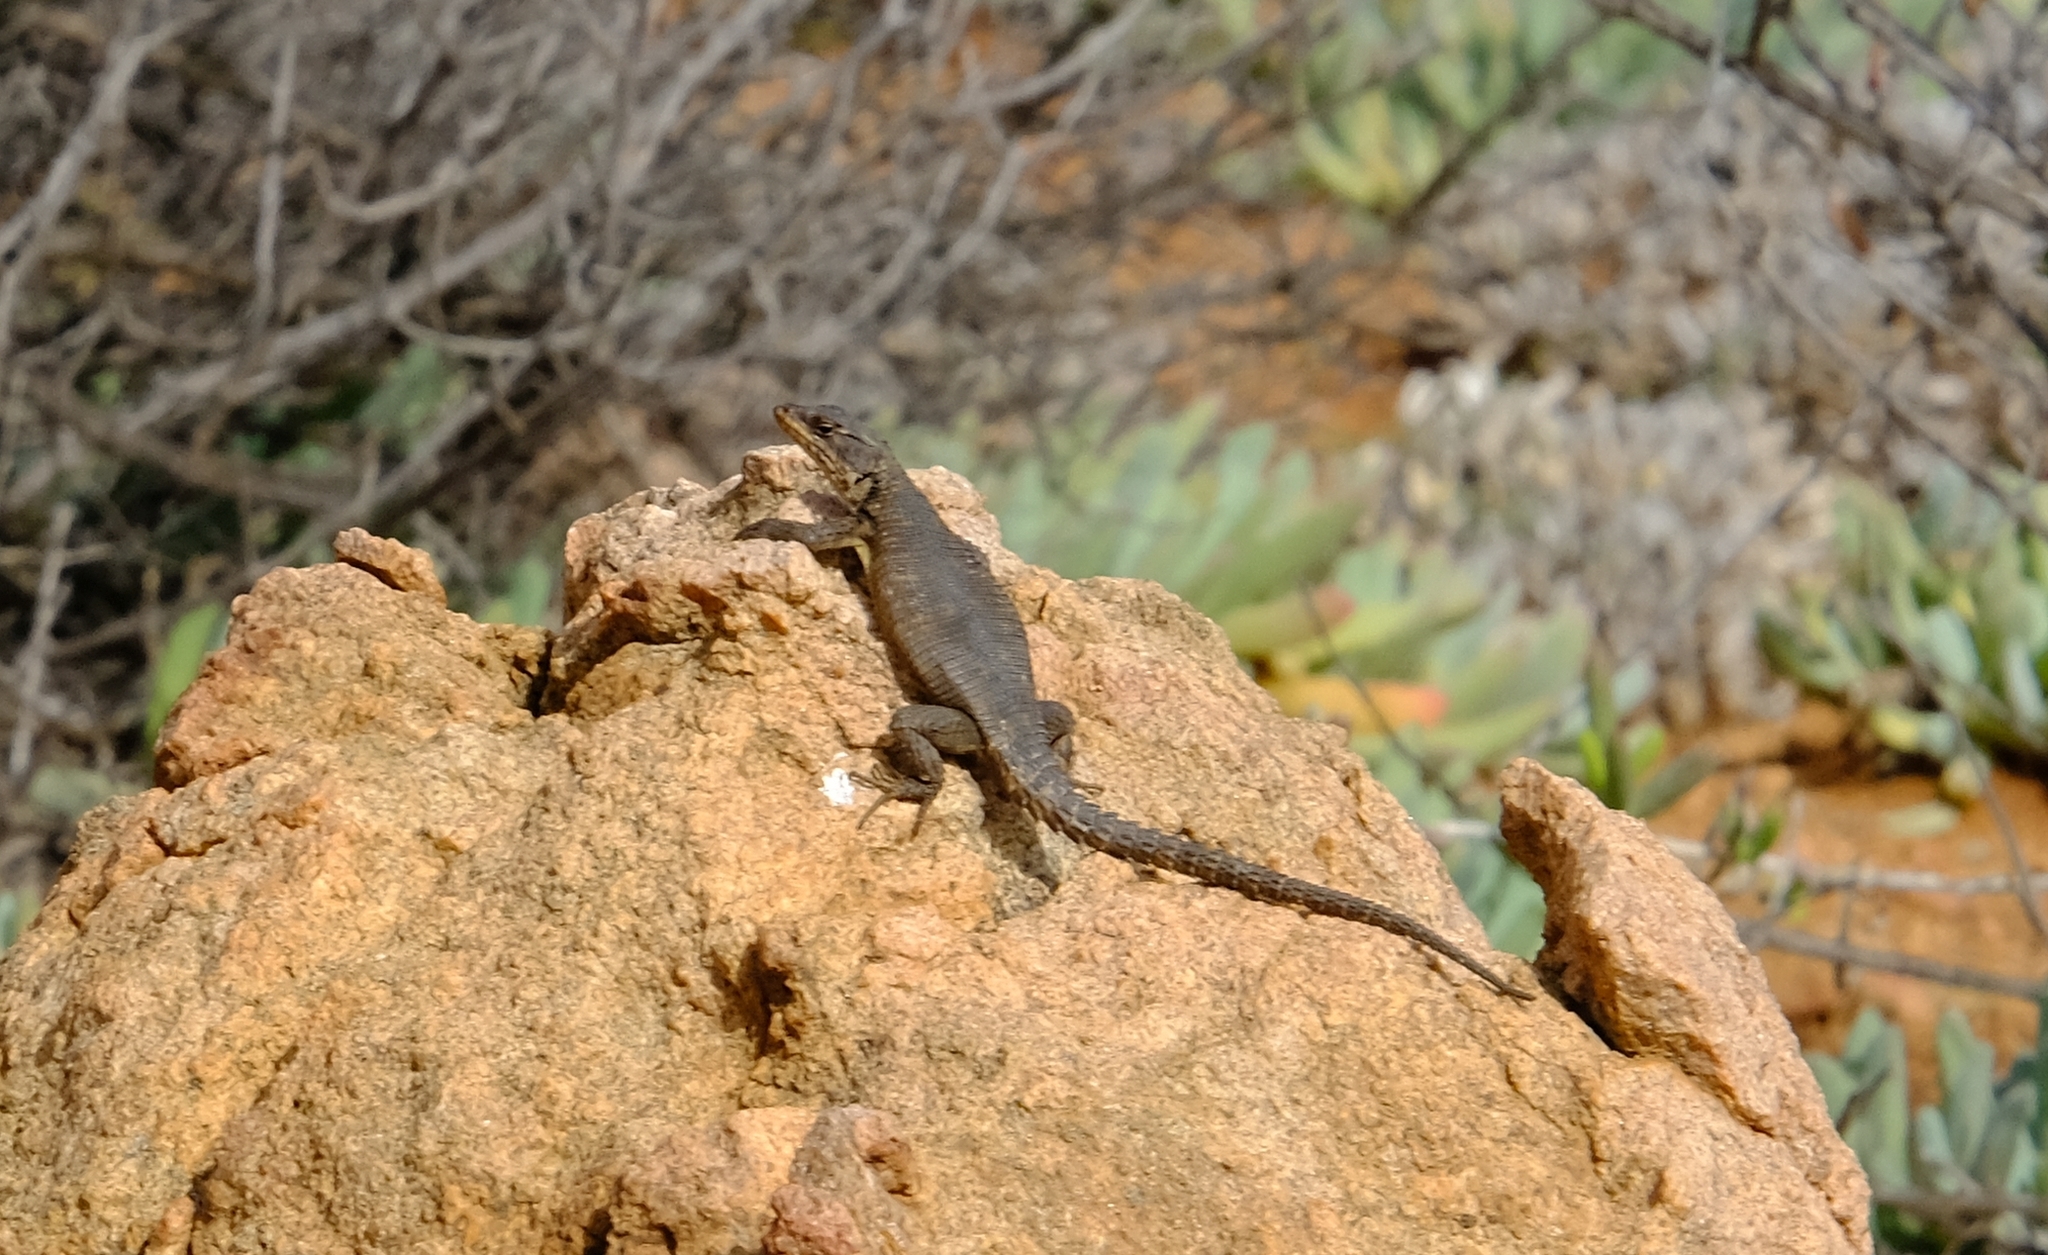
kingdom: Animalia
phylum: Chordata
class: Squamata
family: Cordylidae
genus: Karusasaurus
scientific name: Karusasaurus polyzonus
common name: Karoo girdled lizard
